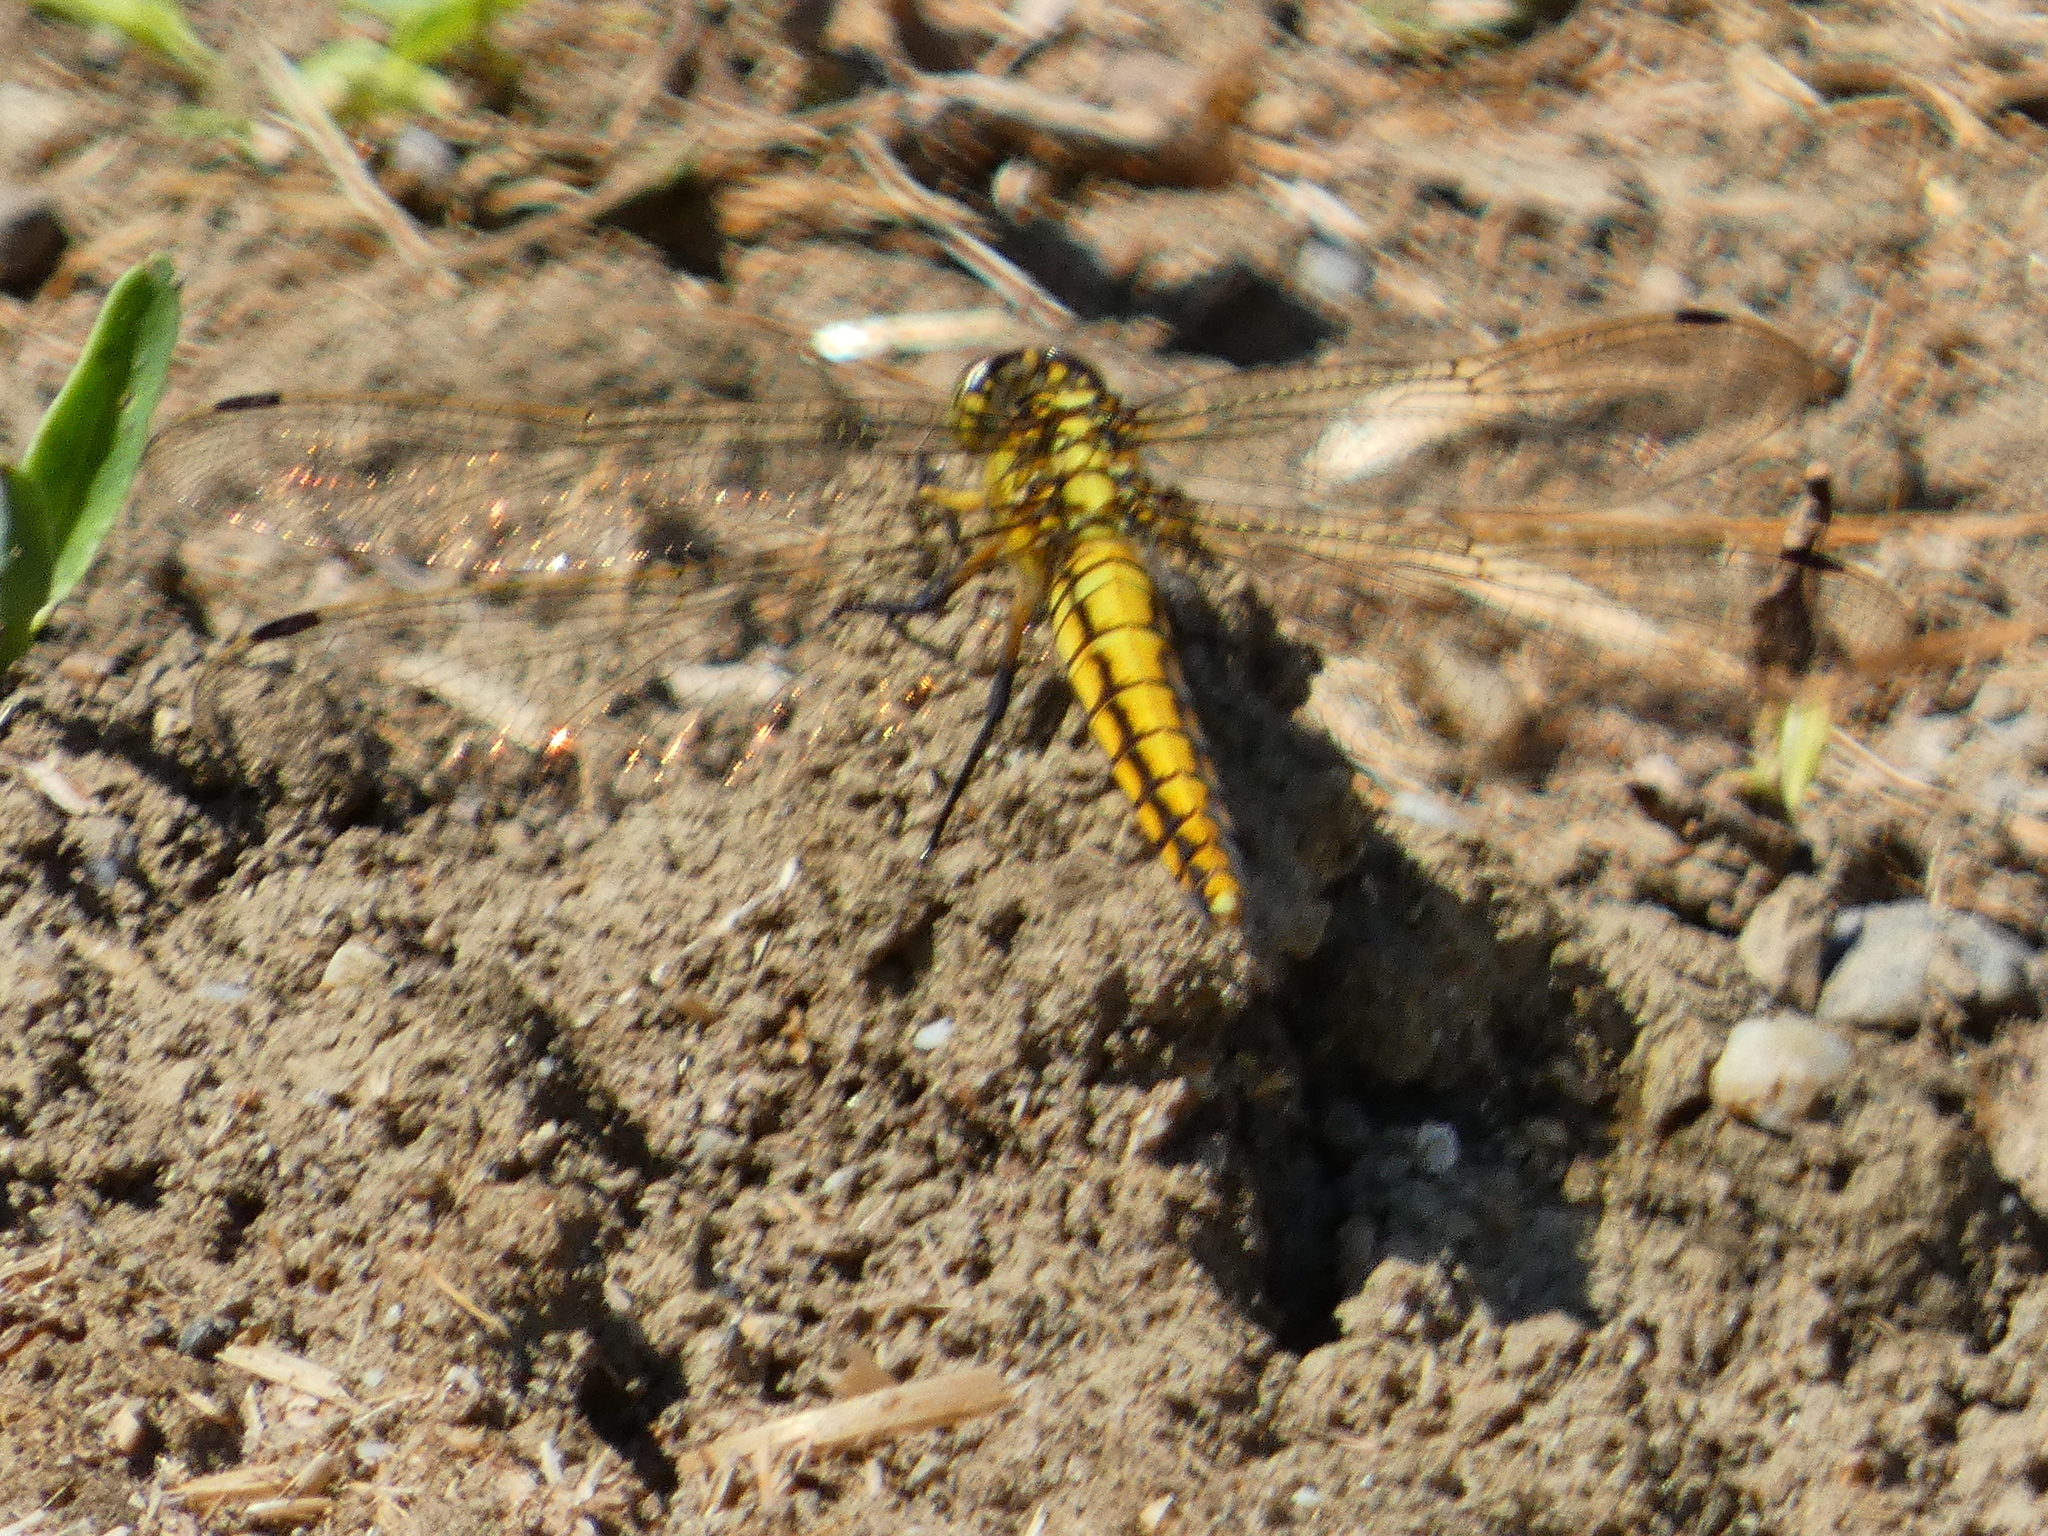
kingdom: Animalia
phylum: Arthropoda
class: Insecta
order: Odonata
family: Libellulidae
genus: Orthetrum
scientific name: Orthetrum cancellatum
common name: Black-tailed skimmer
